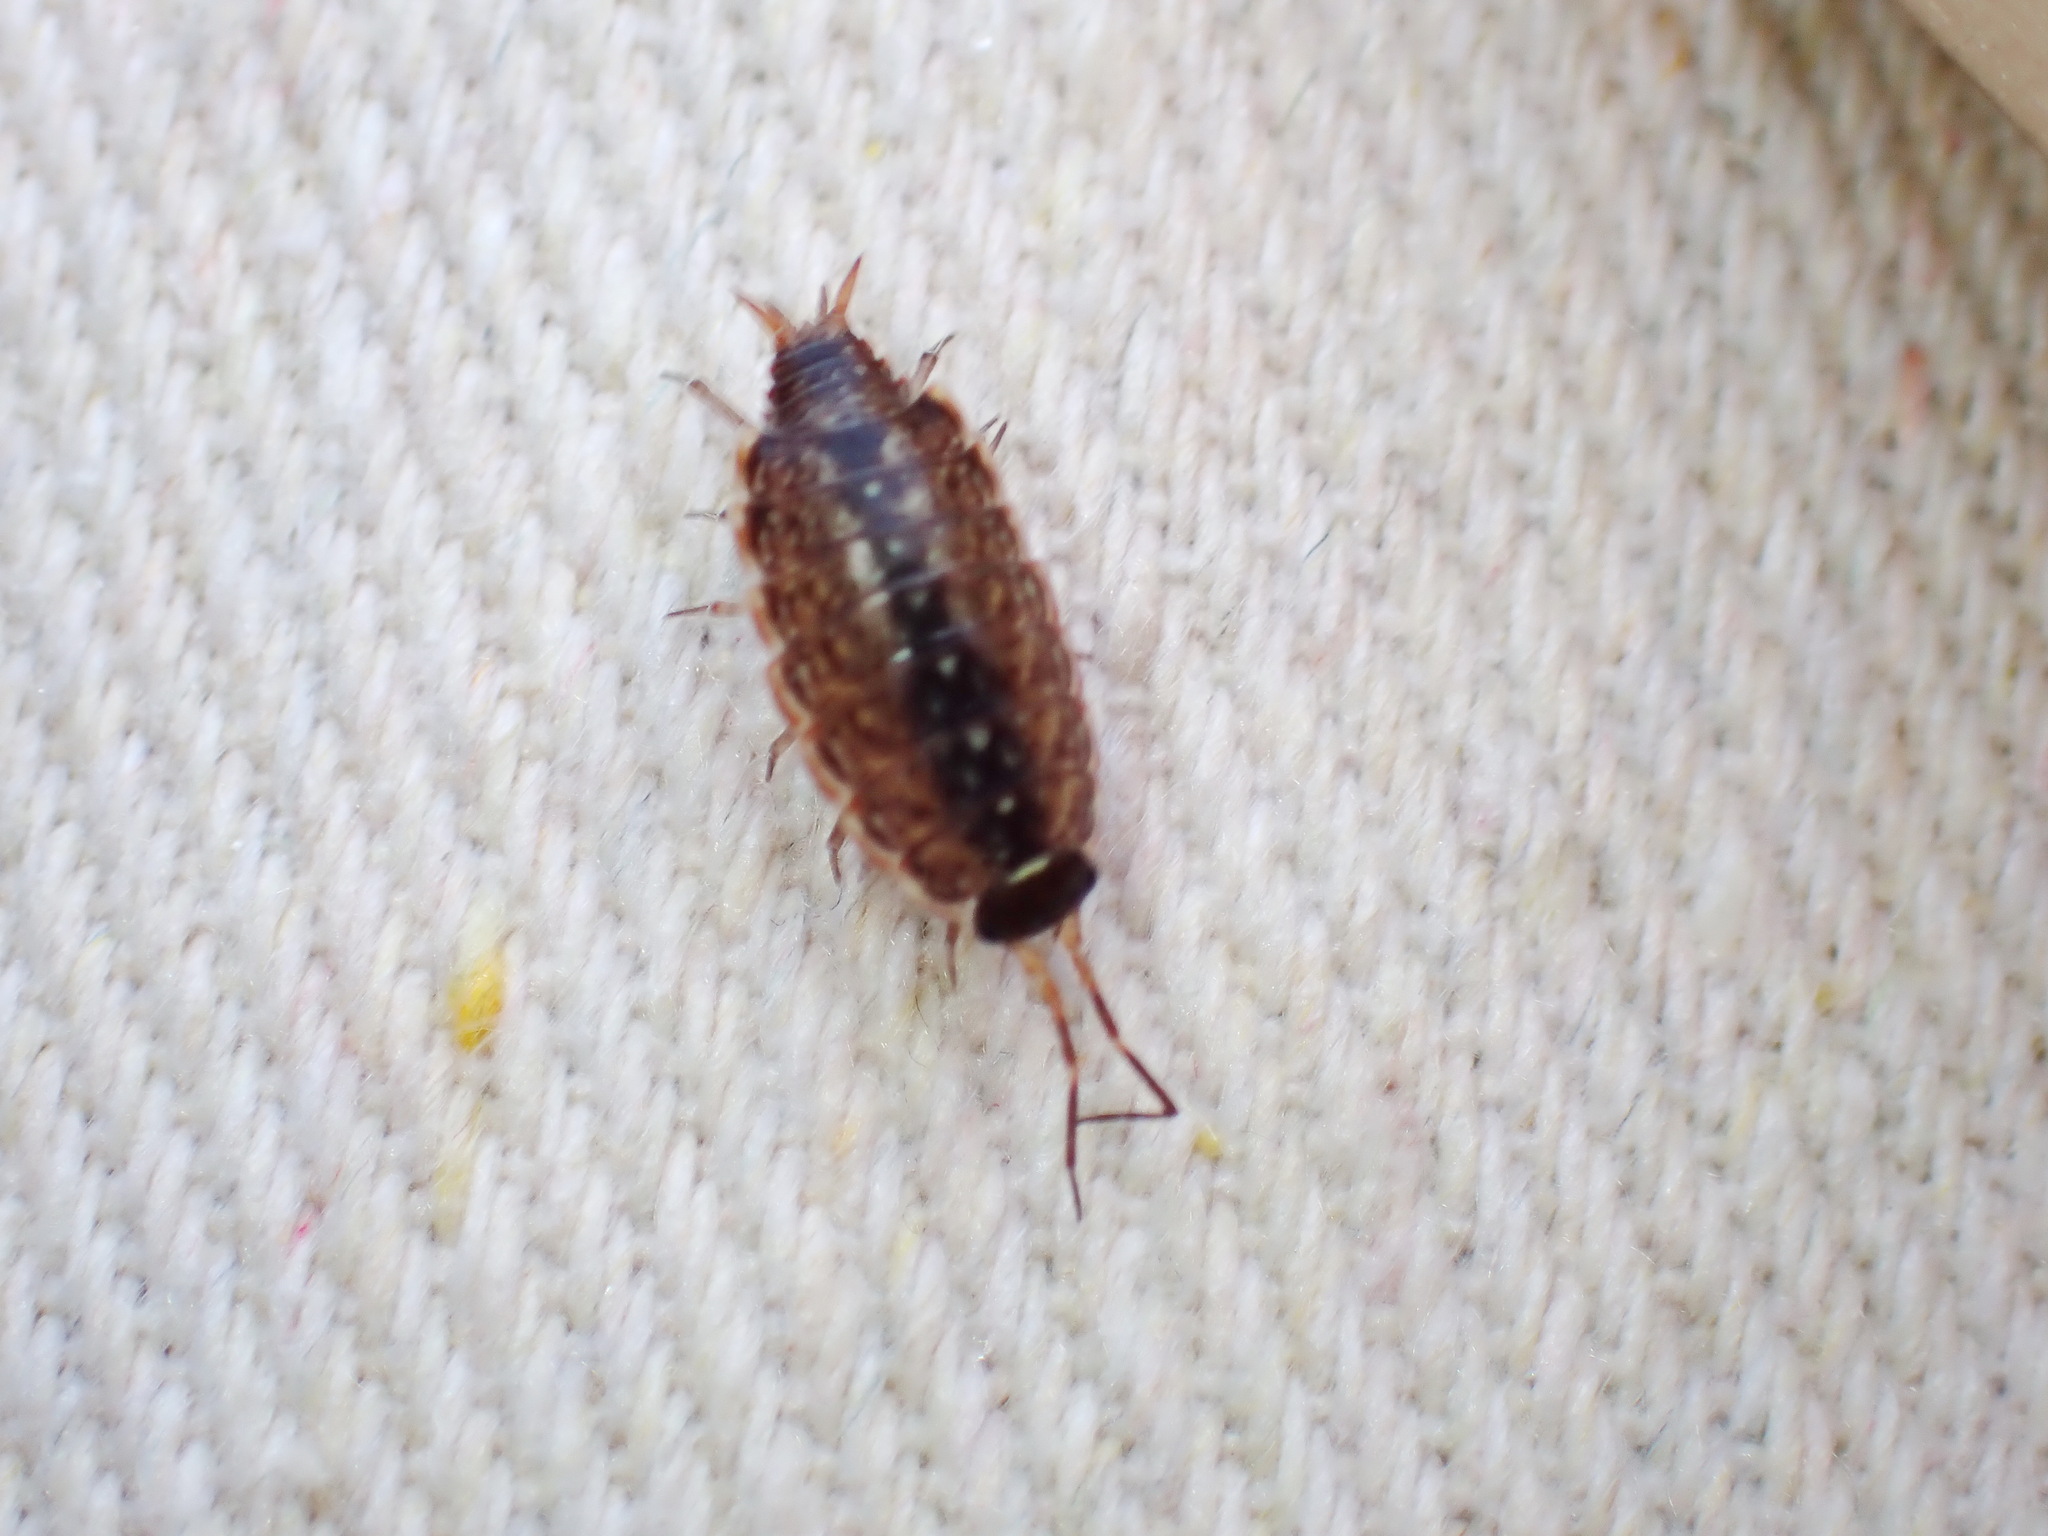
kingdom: Animalia
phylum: Arthropoda
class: Malacostraca
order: Isopoda
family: Philosciidae
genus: Philoscia
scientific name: Philoscia muscorum
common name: Common striped woodlouse
